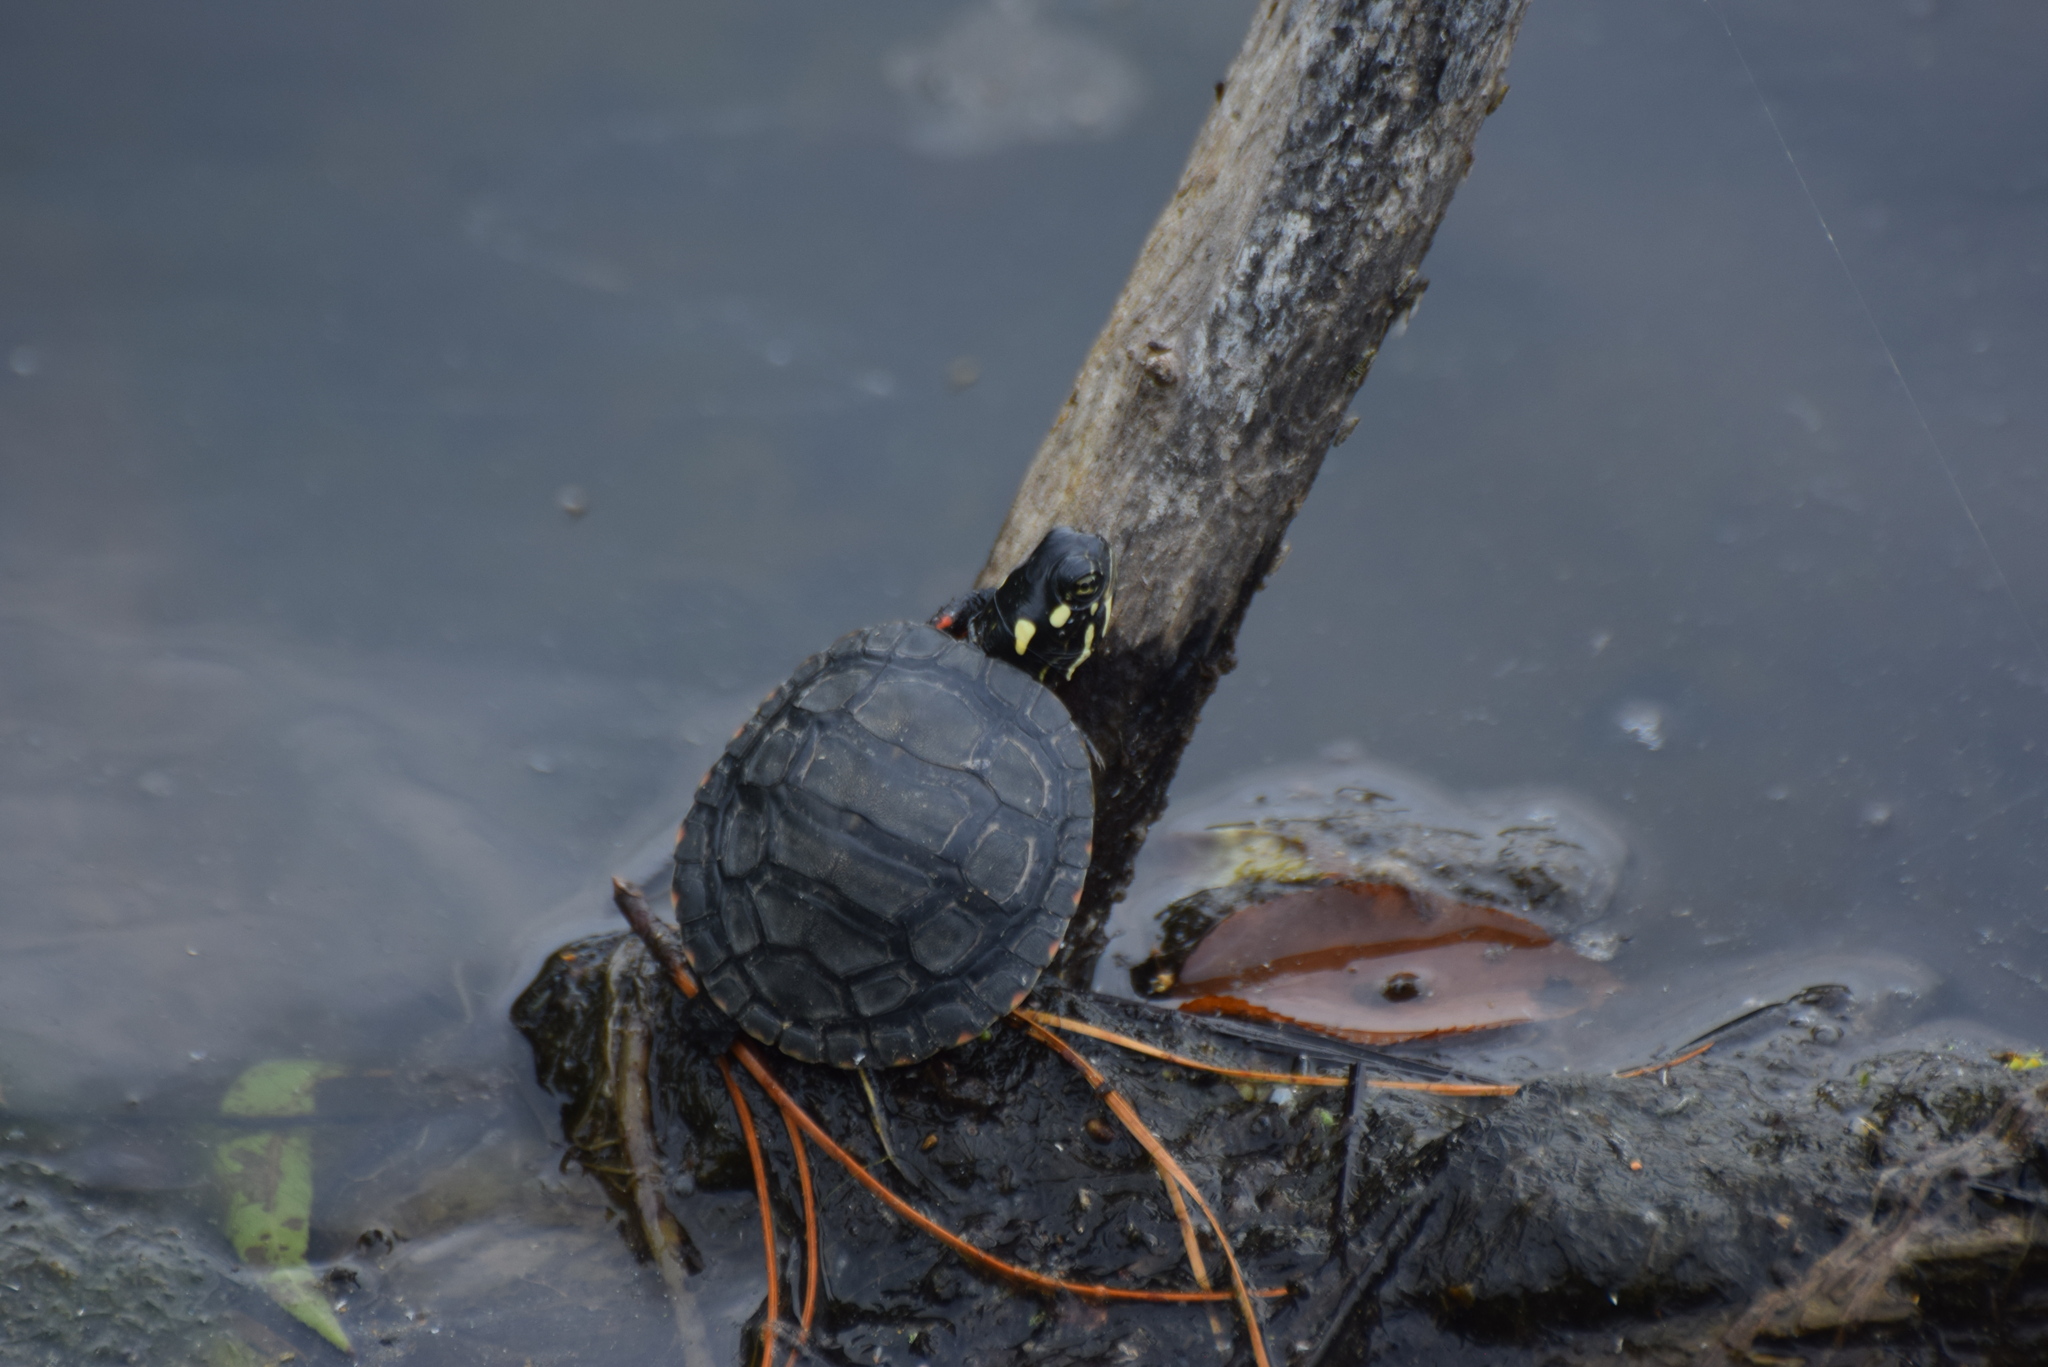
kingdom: Animalia
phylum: Chordata
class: Testudines
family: Emydidae
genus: Chrysemys
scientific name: Chrysemys picta
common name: Painted turtle
